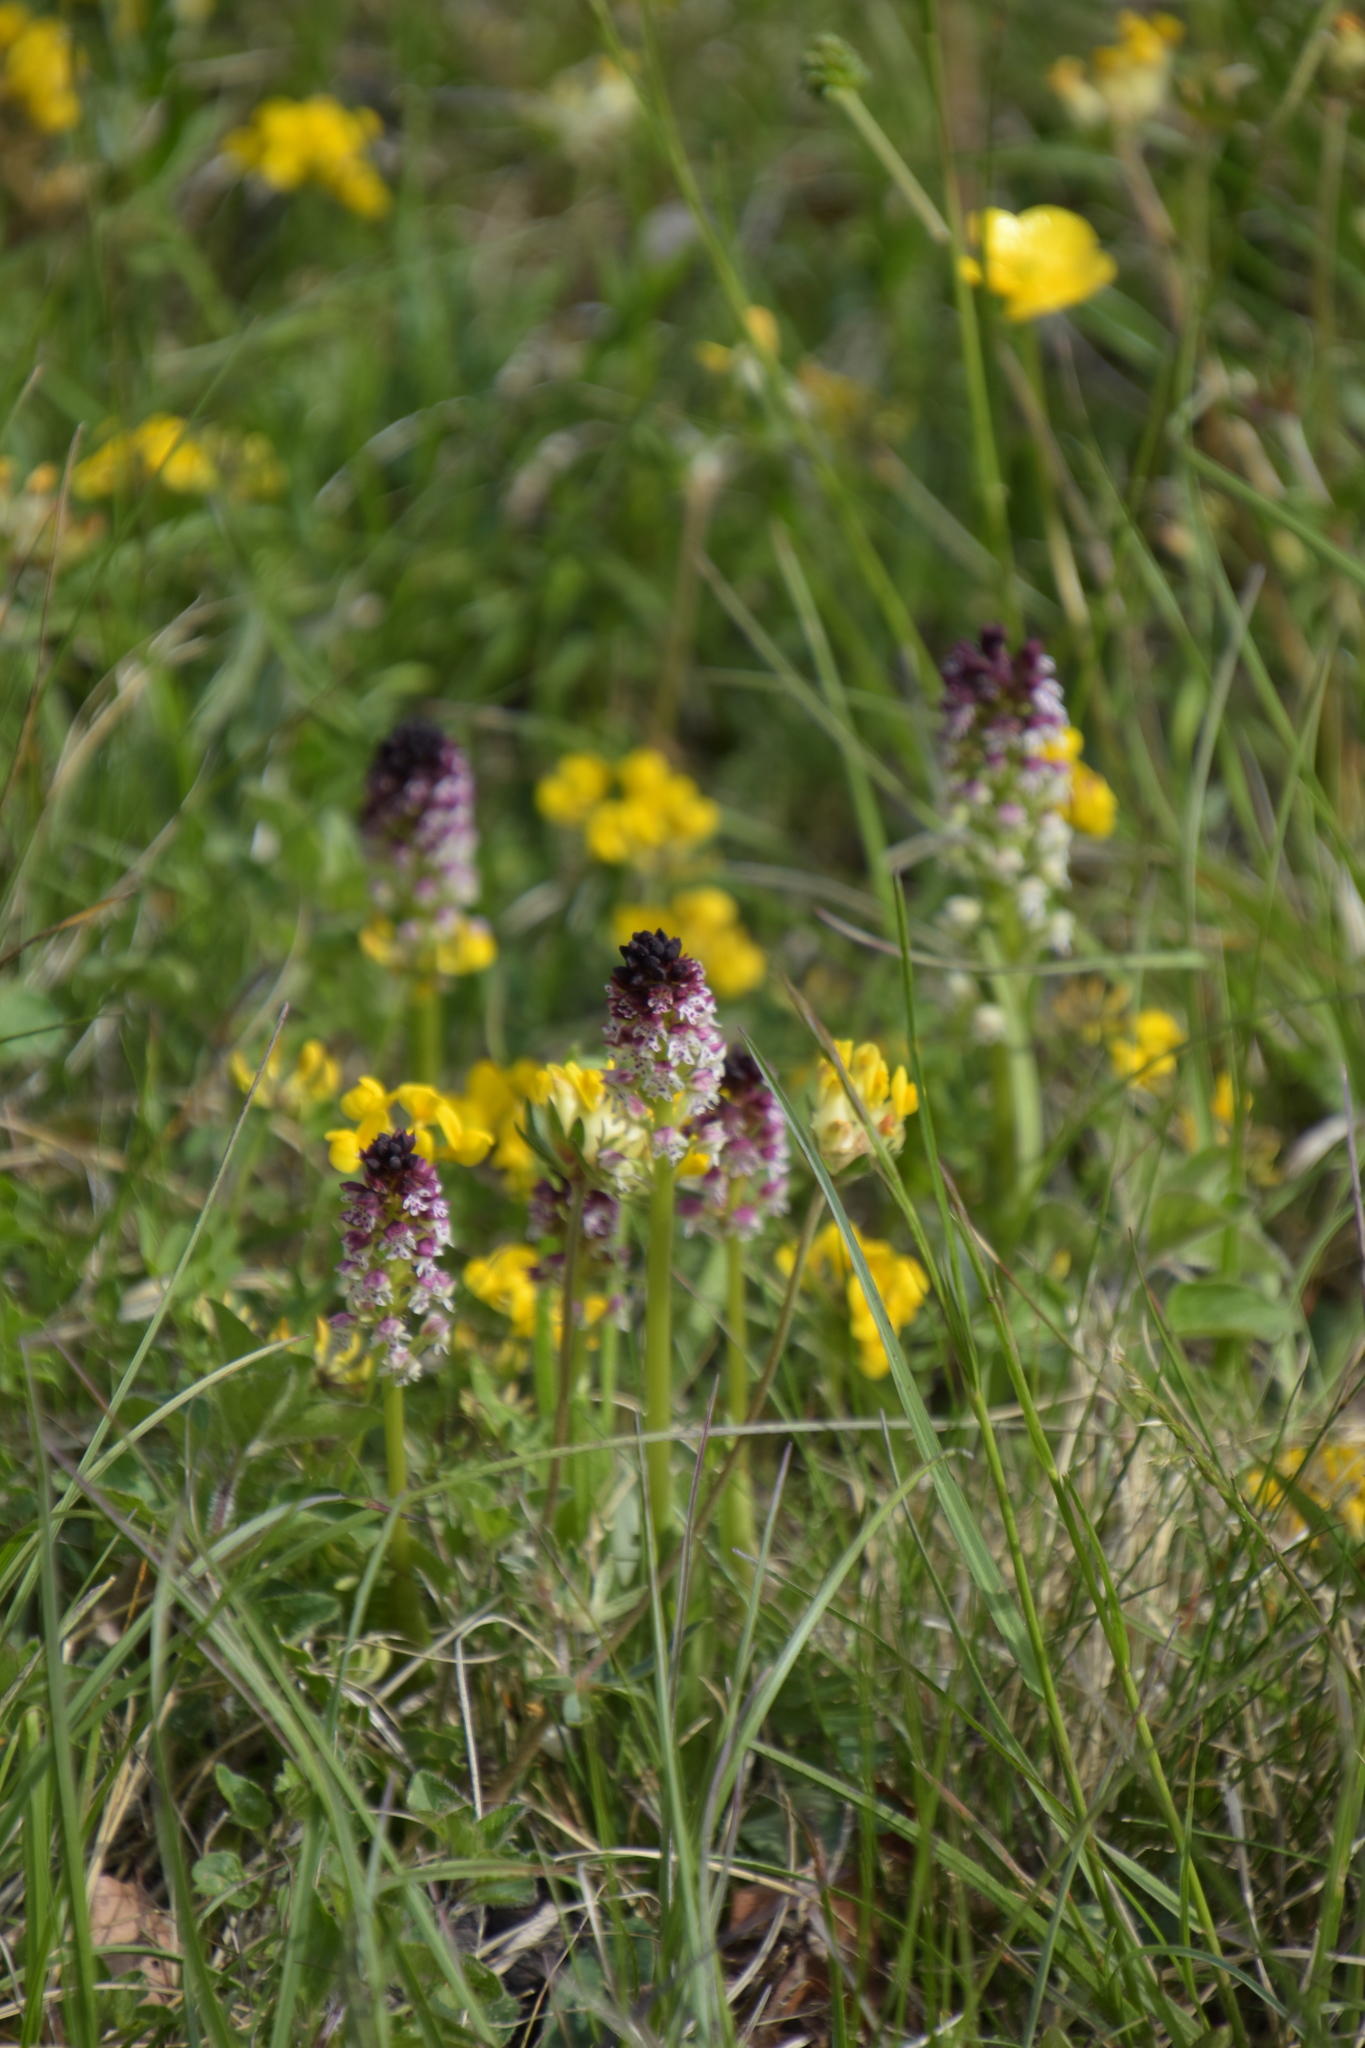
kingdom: Plantae
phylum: Tracheophyta
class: Liliopsida
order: Asparagales
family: Orchidaceae
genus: Neotinea
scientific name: Neotinea ustulata
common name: Burnt orchid
